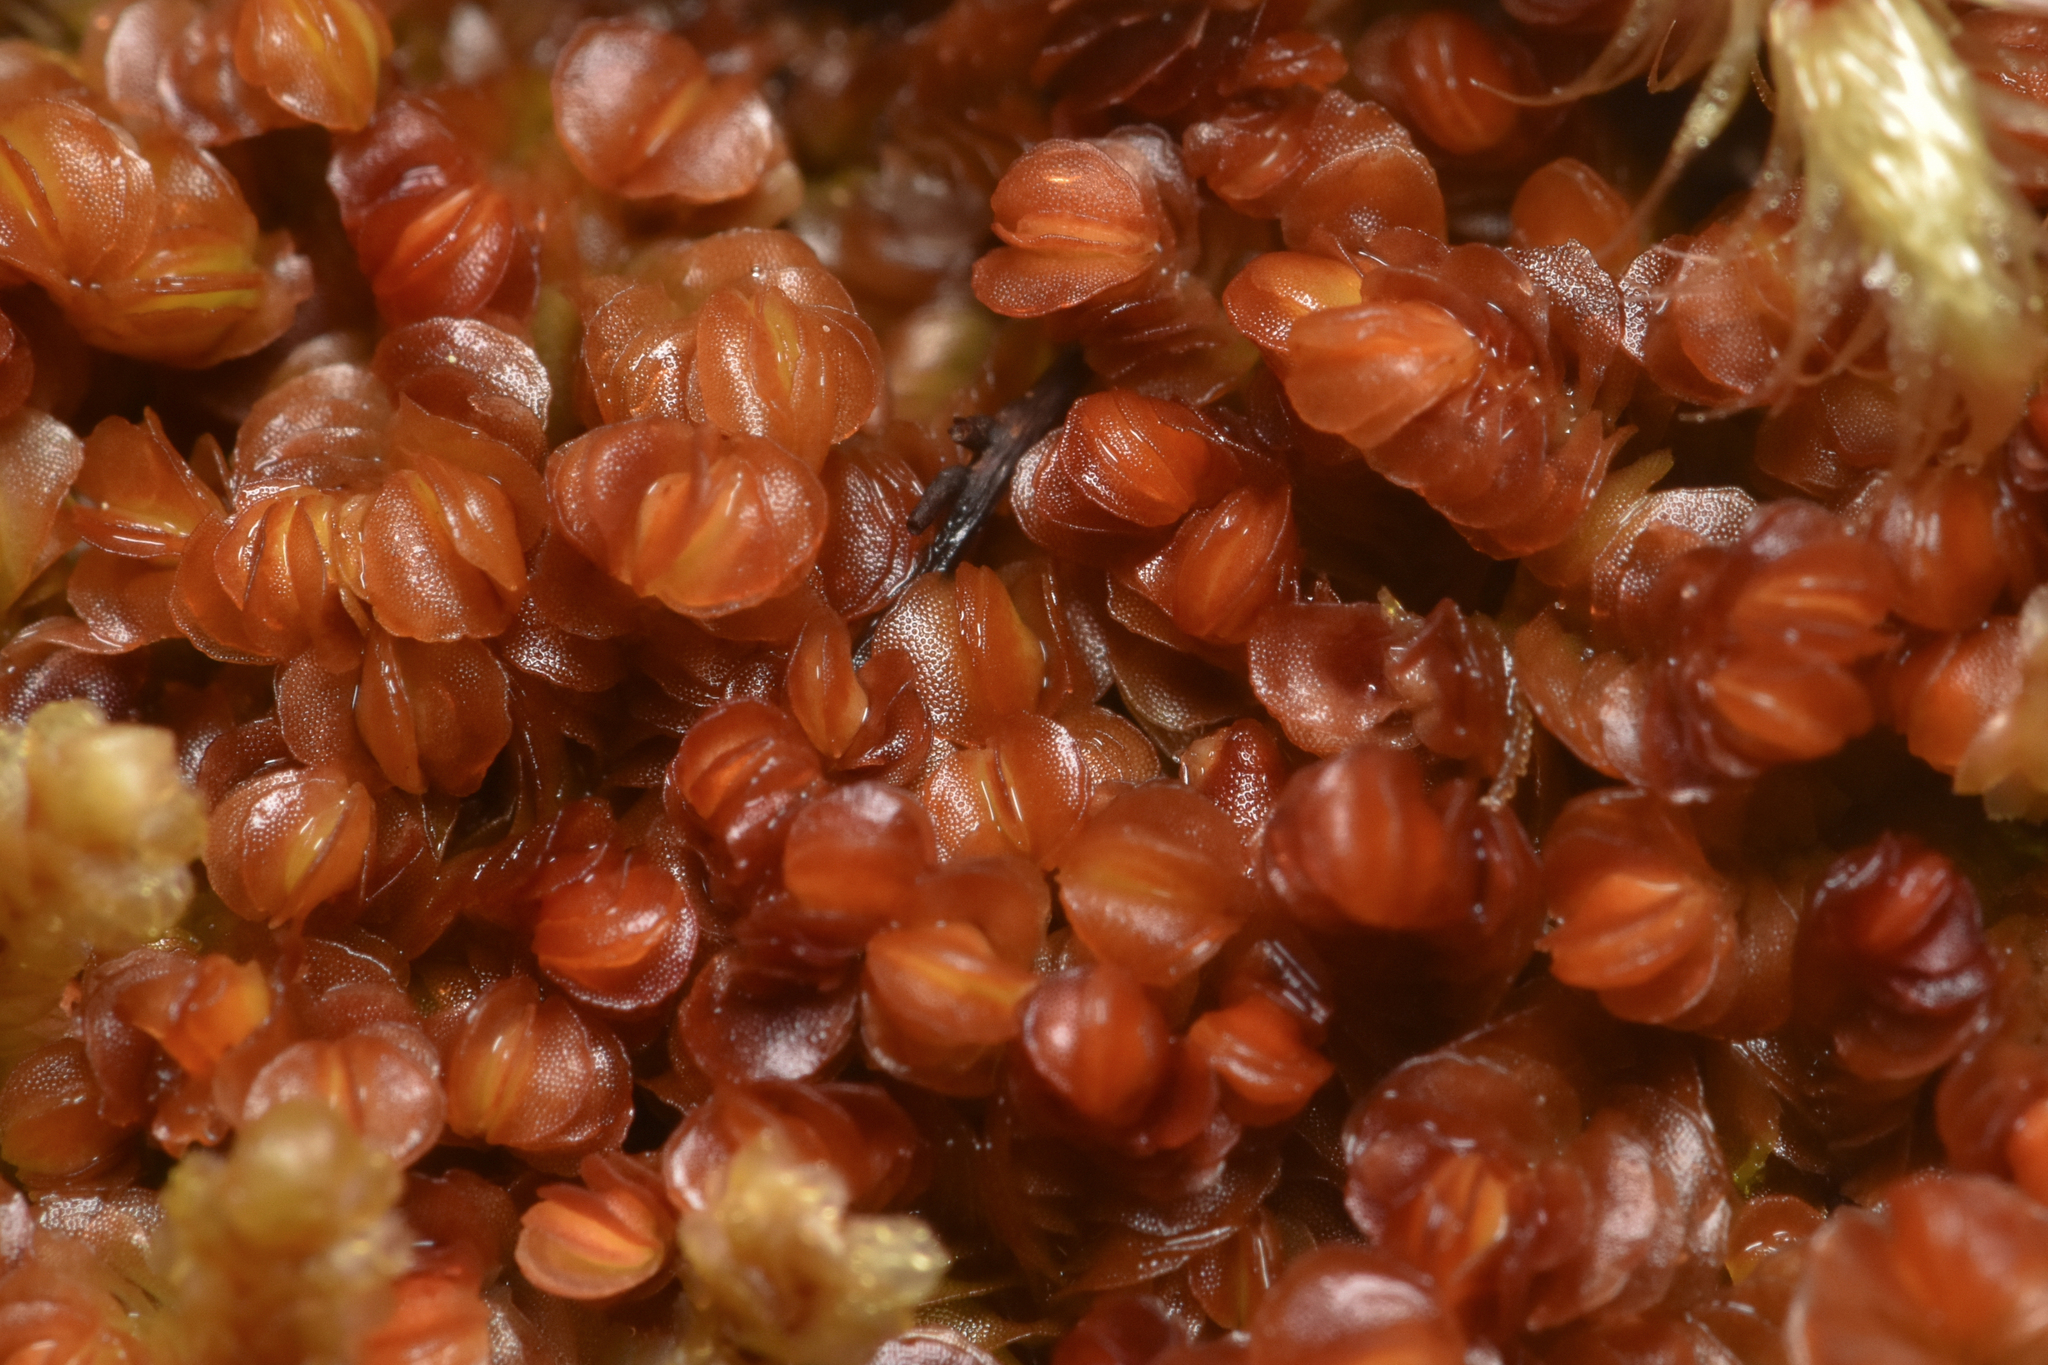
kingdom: Plantae
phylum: Marchantiophyta
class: Jungermanniopsida
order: Jungermanniales
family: Myliaceae
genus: Mylia
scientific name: Mylia taylorii
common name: Taylor s flapwort
